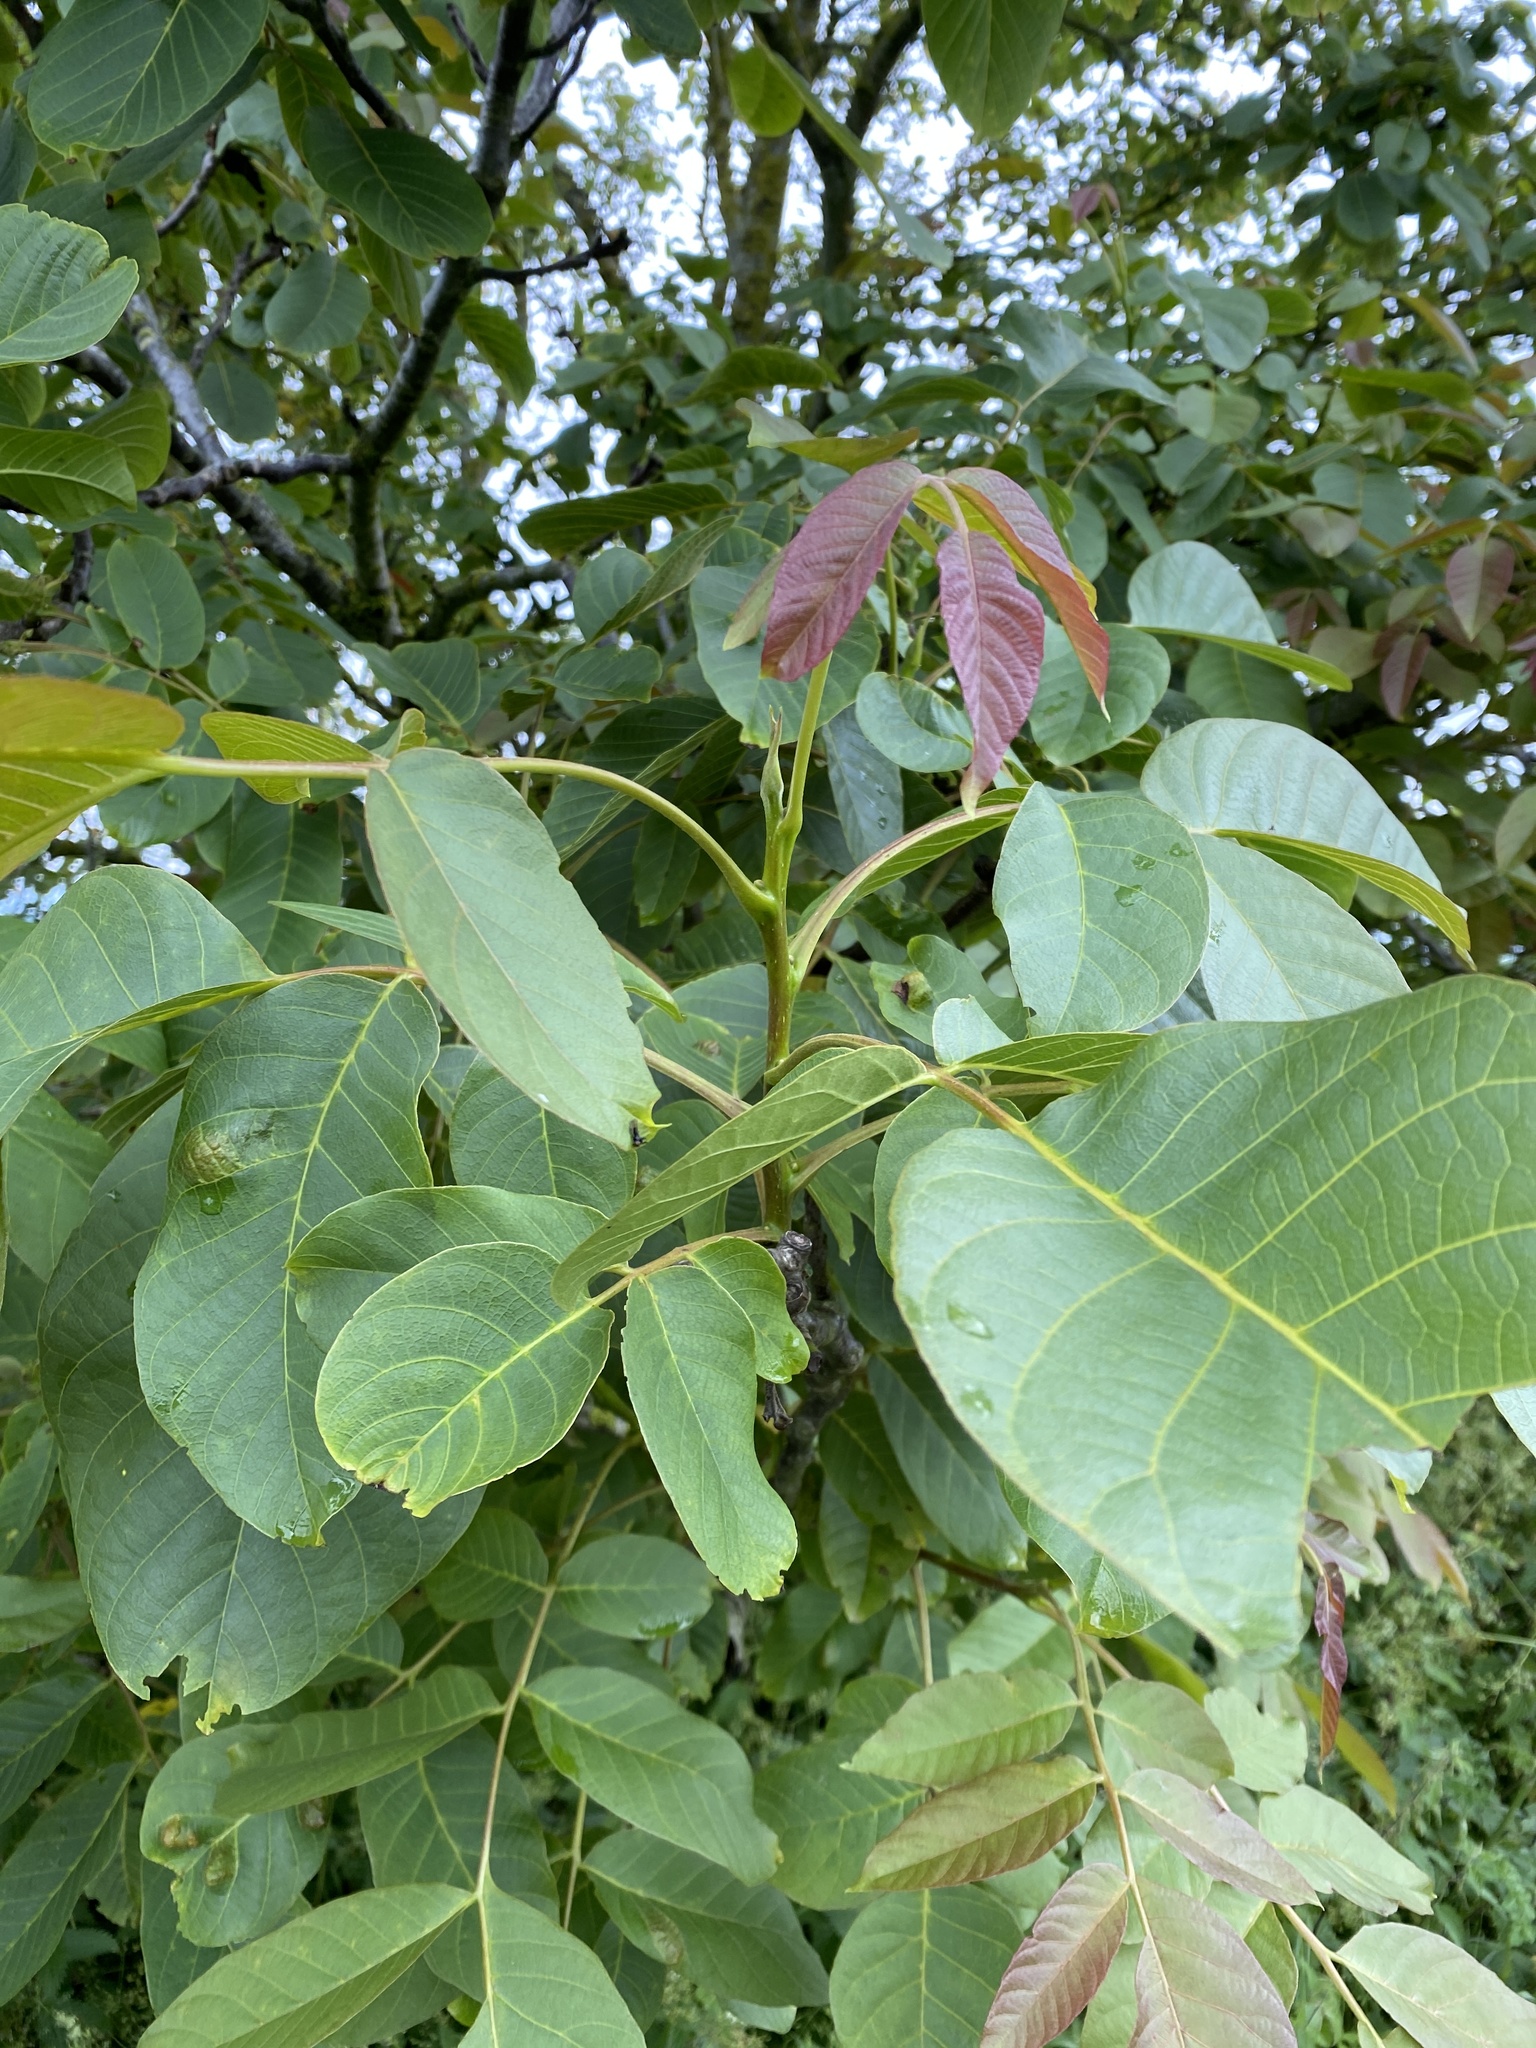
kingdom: Plantae
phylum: Tracheophyta
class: Magnoliopsida
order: Fagales
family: Juglandaceae
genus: Juglans
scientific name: Juglans regia
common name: Walnut
